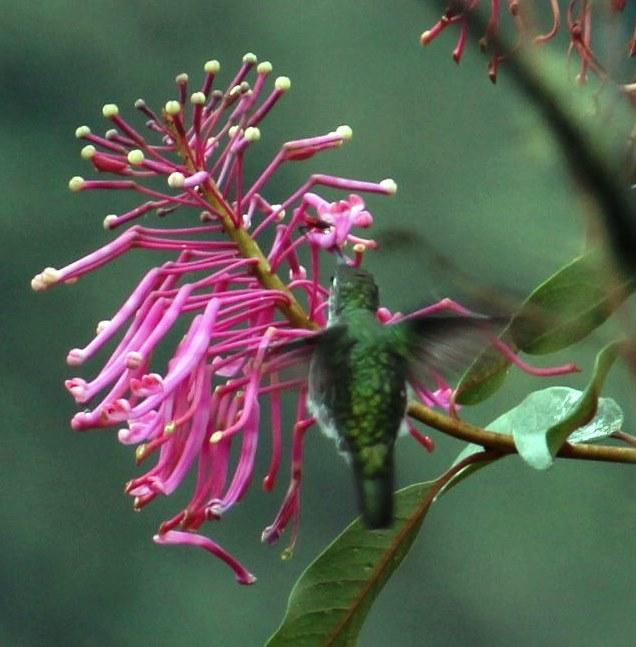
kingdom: Plantae
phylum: Tracheophyta
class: Magnoliopsida
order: Proteales
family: Proteaceae
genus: Oreocallis
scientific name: Oreocallis grandiflora
